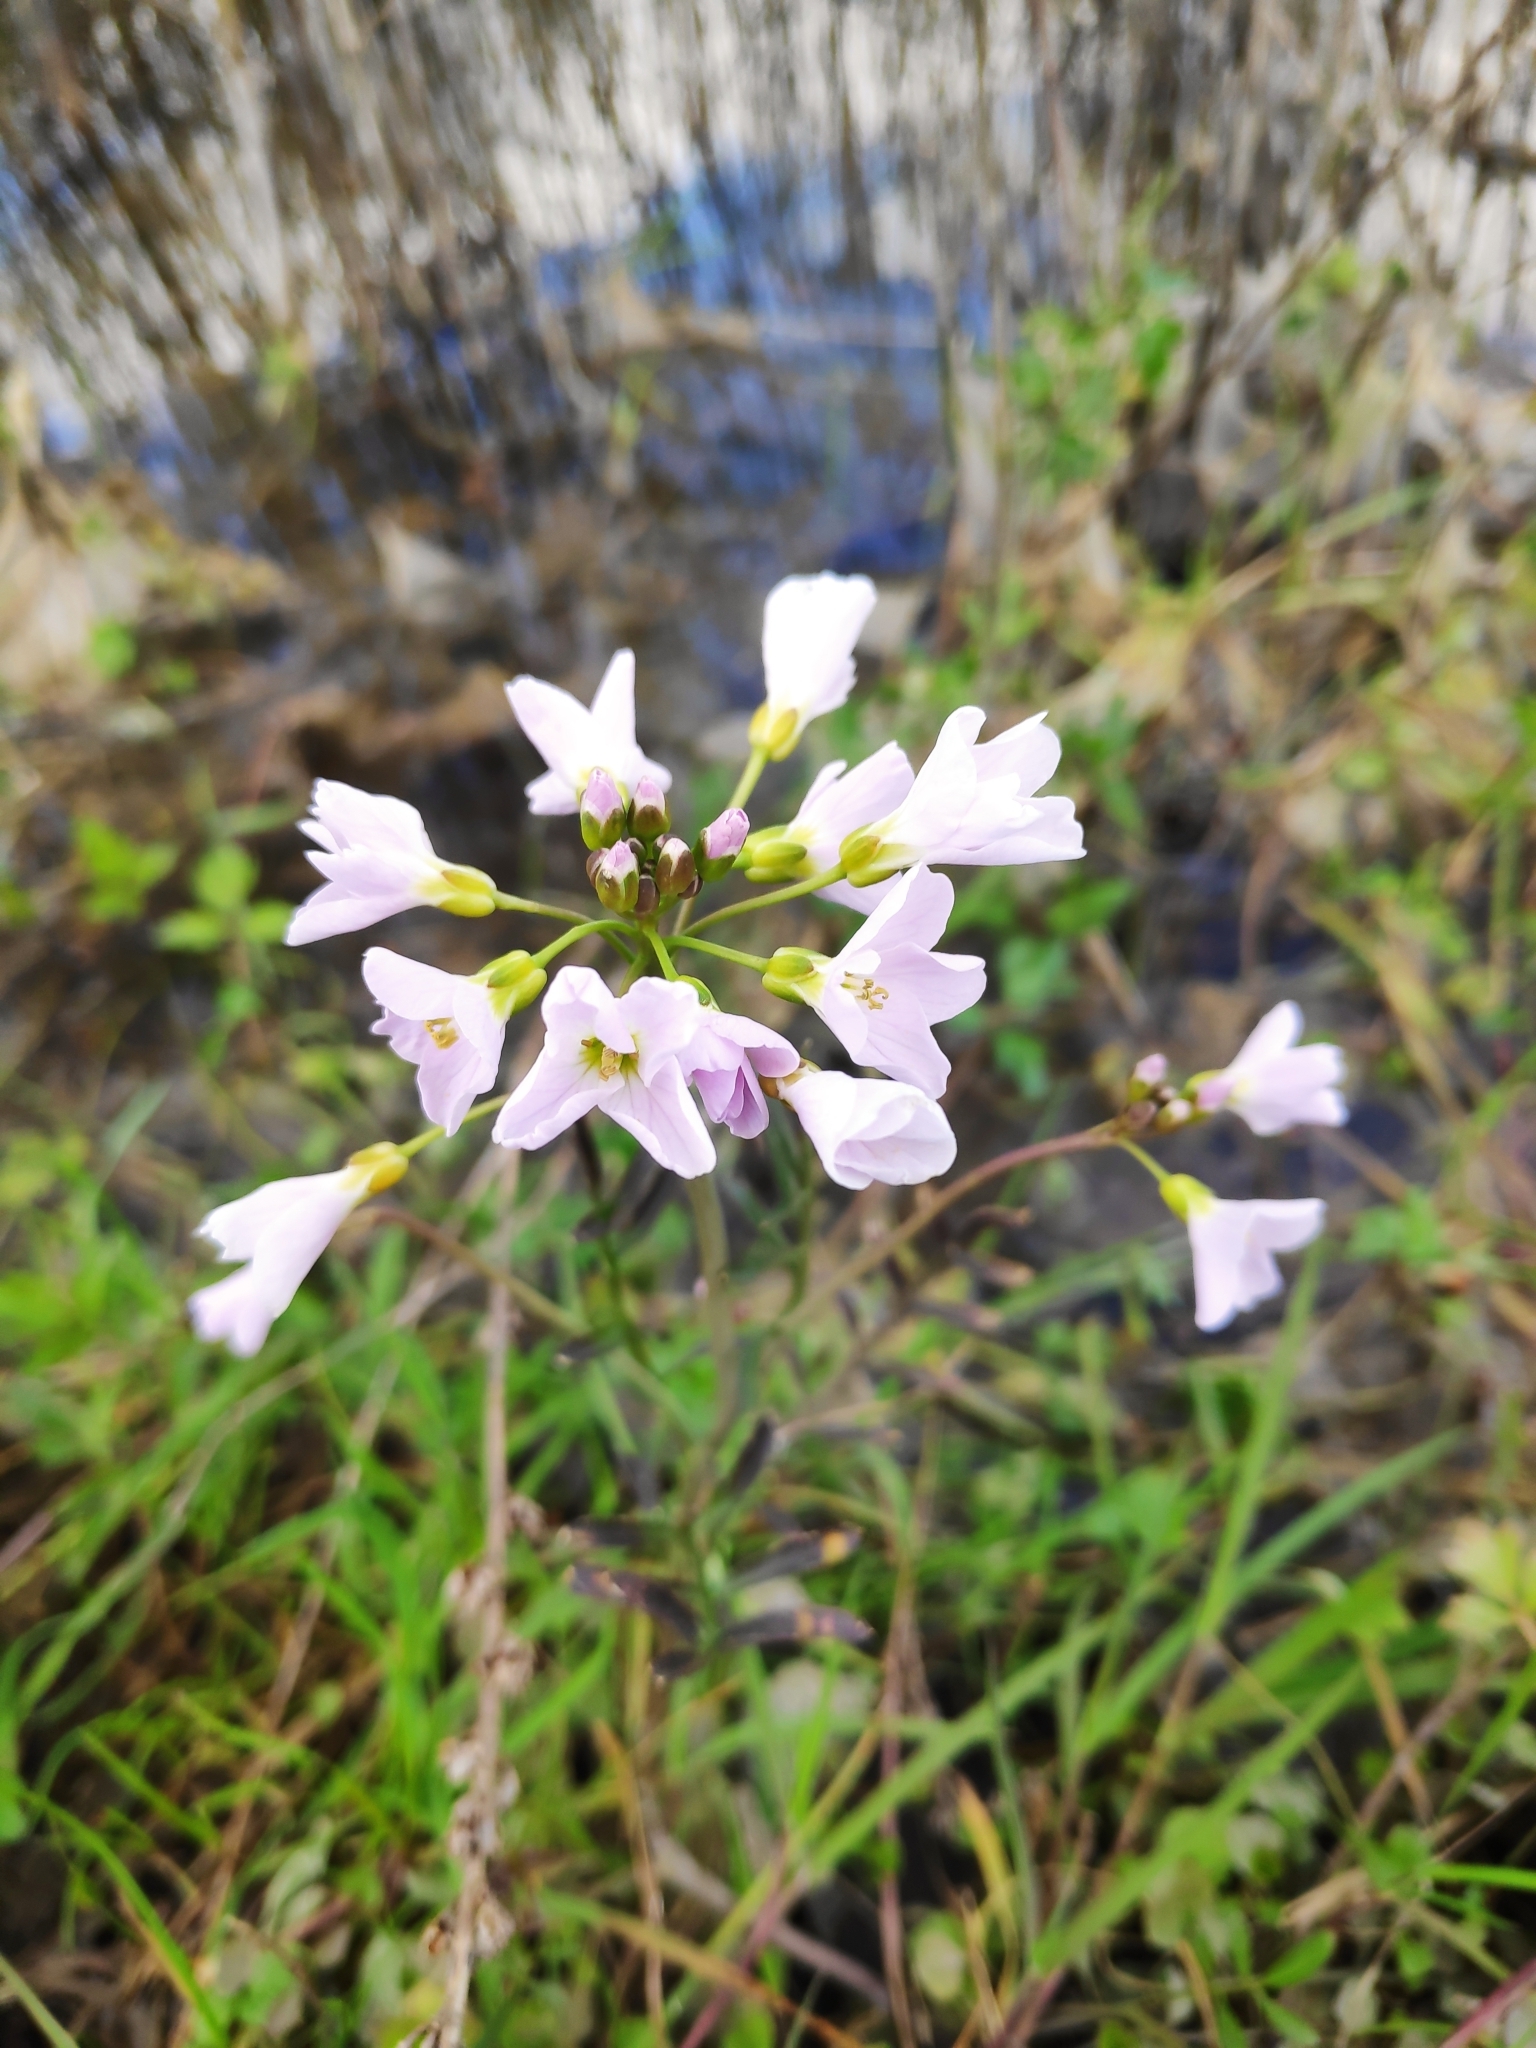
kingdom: Plantae
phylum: Tracheophyta
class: Magnoliopsida
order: Brassicales
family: Brassicaceae
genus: Cardamine
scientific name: Cardamine pratensis
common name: Cuckoo flower
